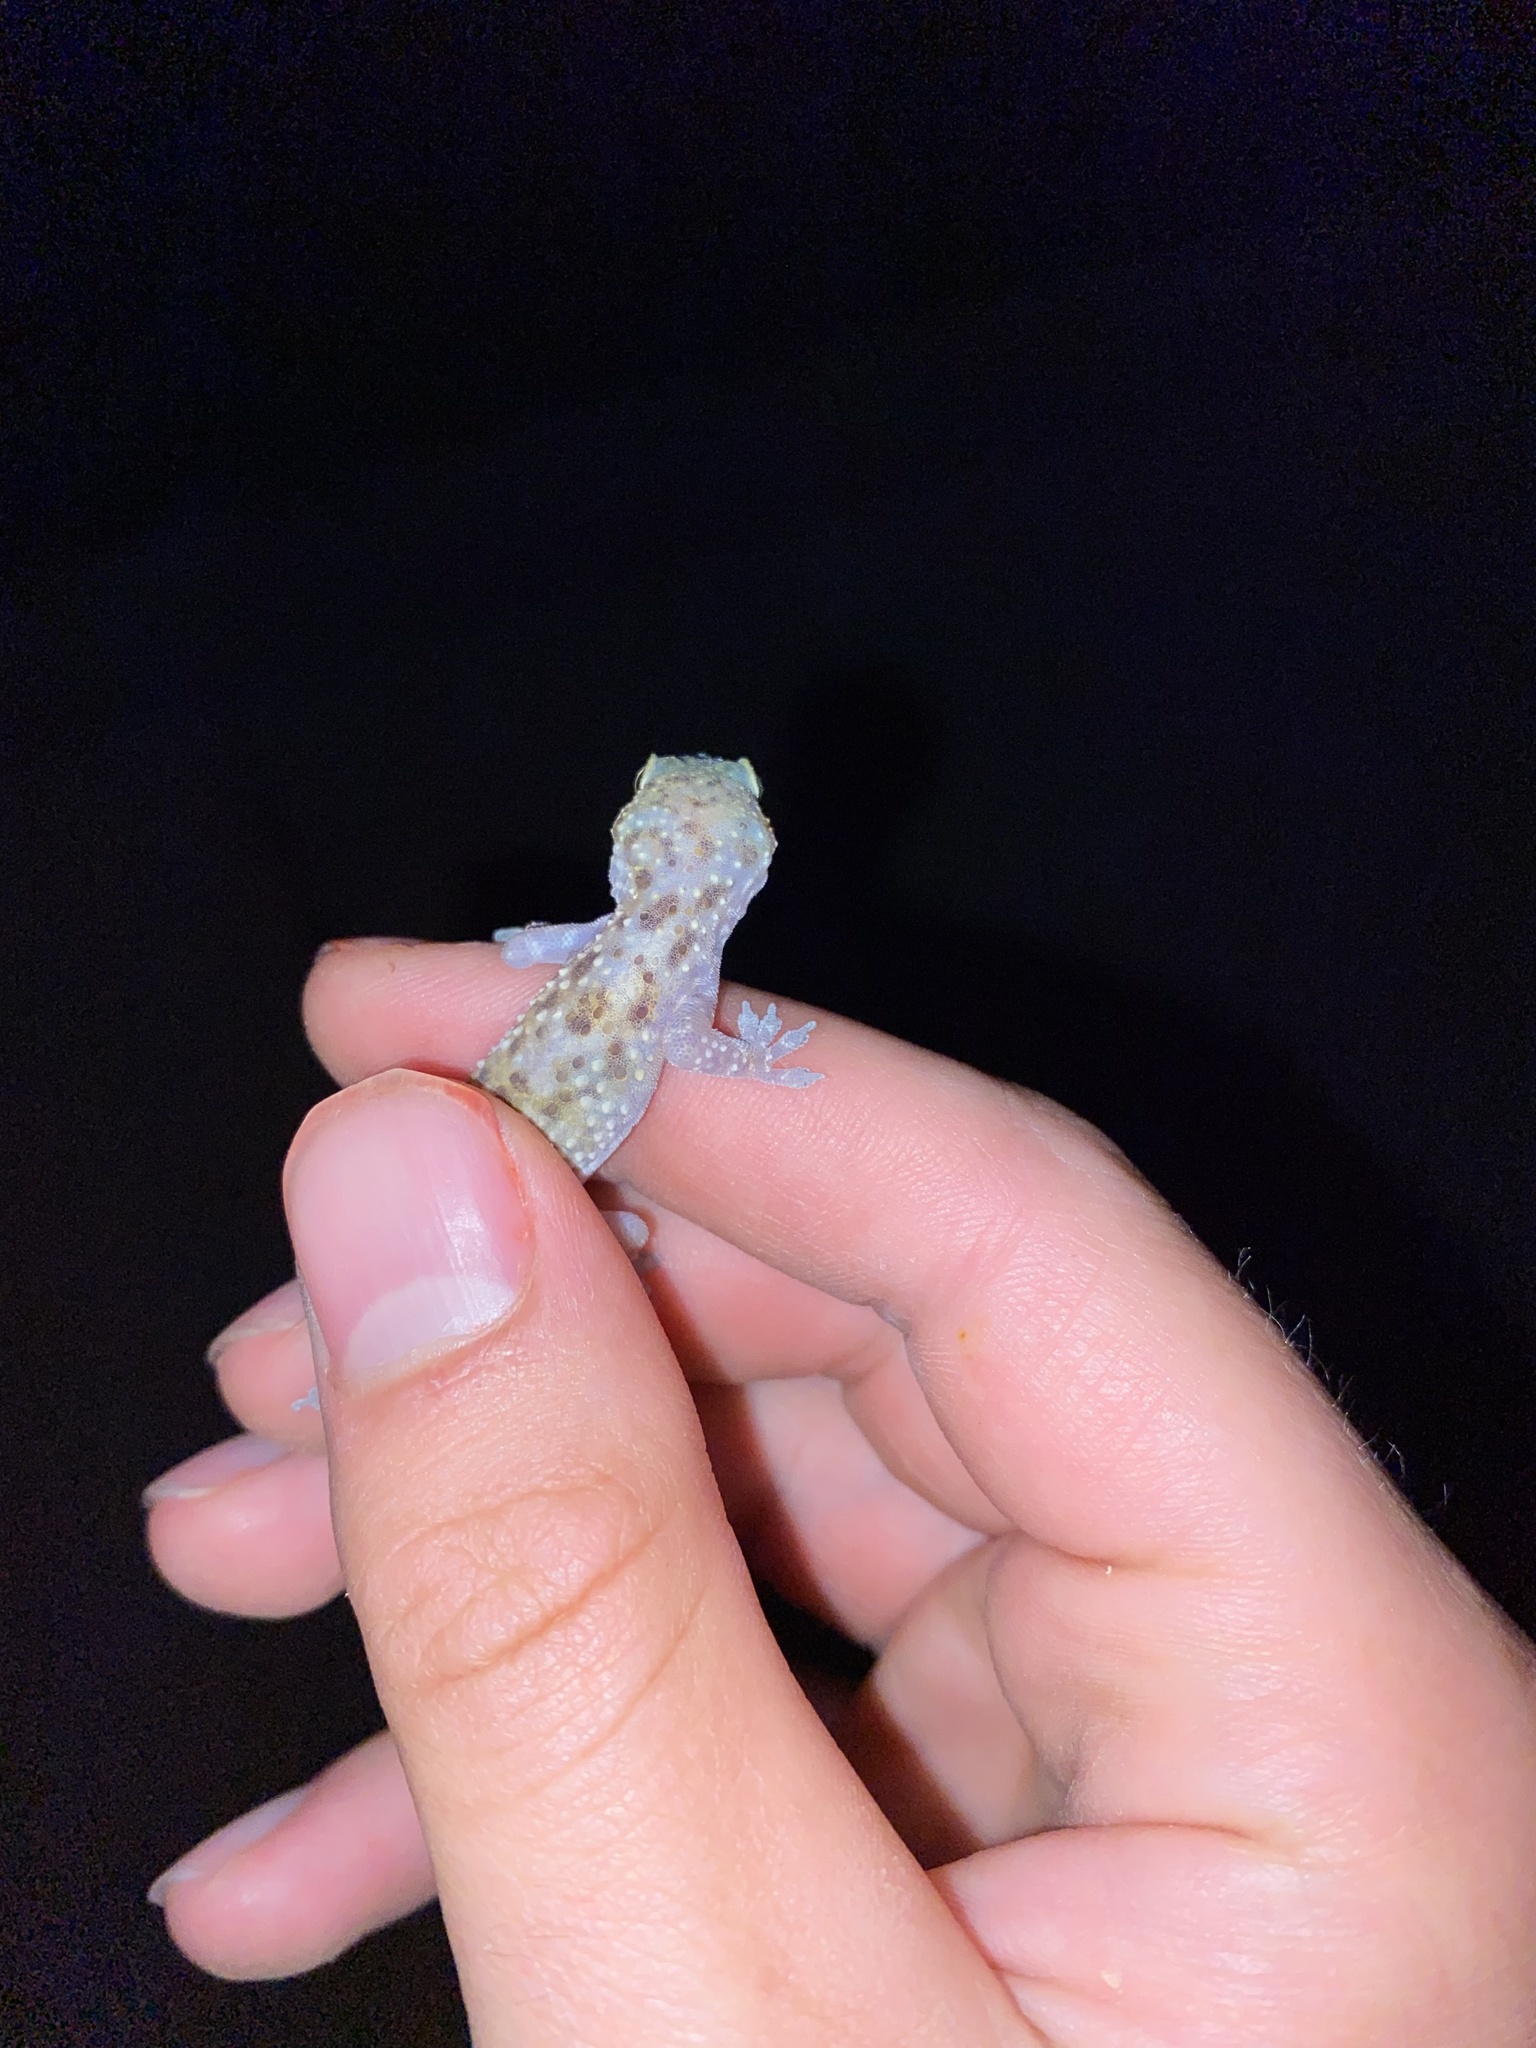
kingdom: Animalia
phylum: Chordata
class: Squamata
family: Gekkonidae
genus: Hemidactylus
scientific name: Hemidactylus turcicus
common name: Turkish gecko
